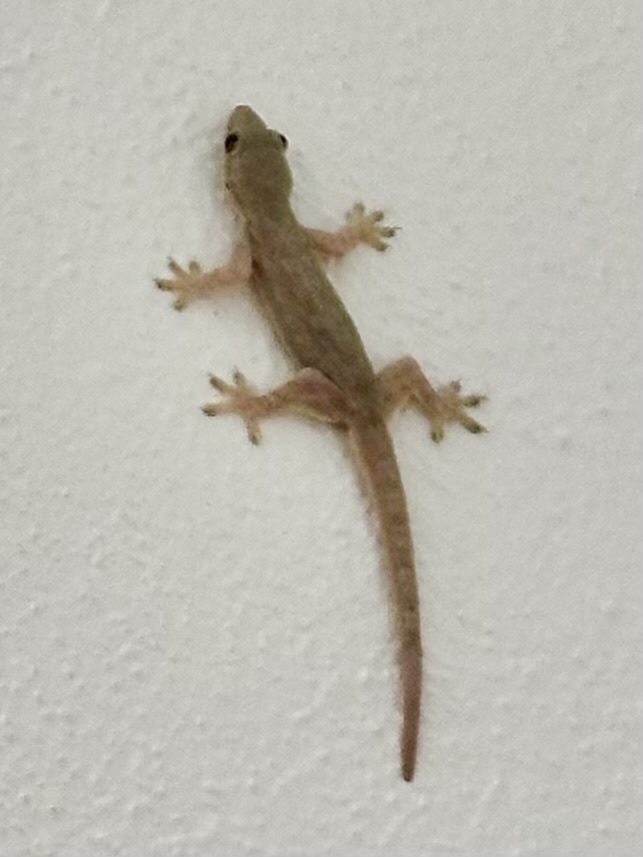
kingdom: Animalia
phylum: Chordata
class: Squamata
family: Gekkonidae
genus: Hemidactylus
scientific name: Hemidactylus platyurus
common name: Flat-tailed house gecko
